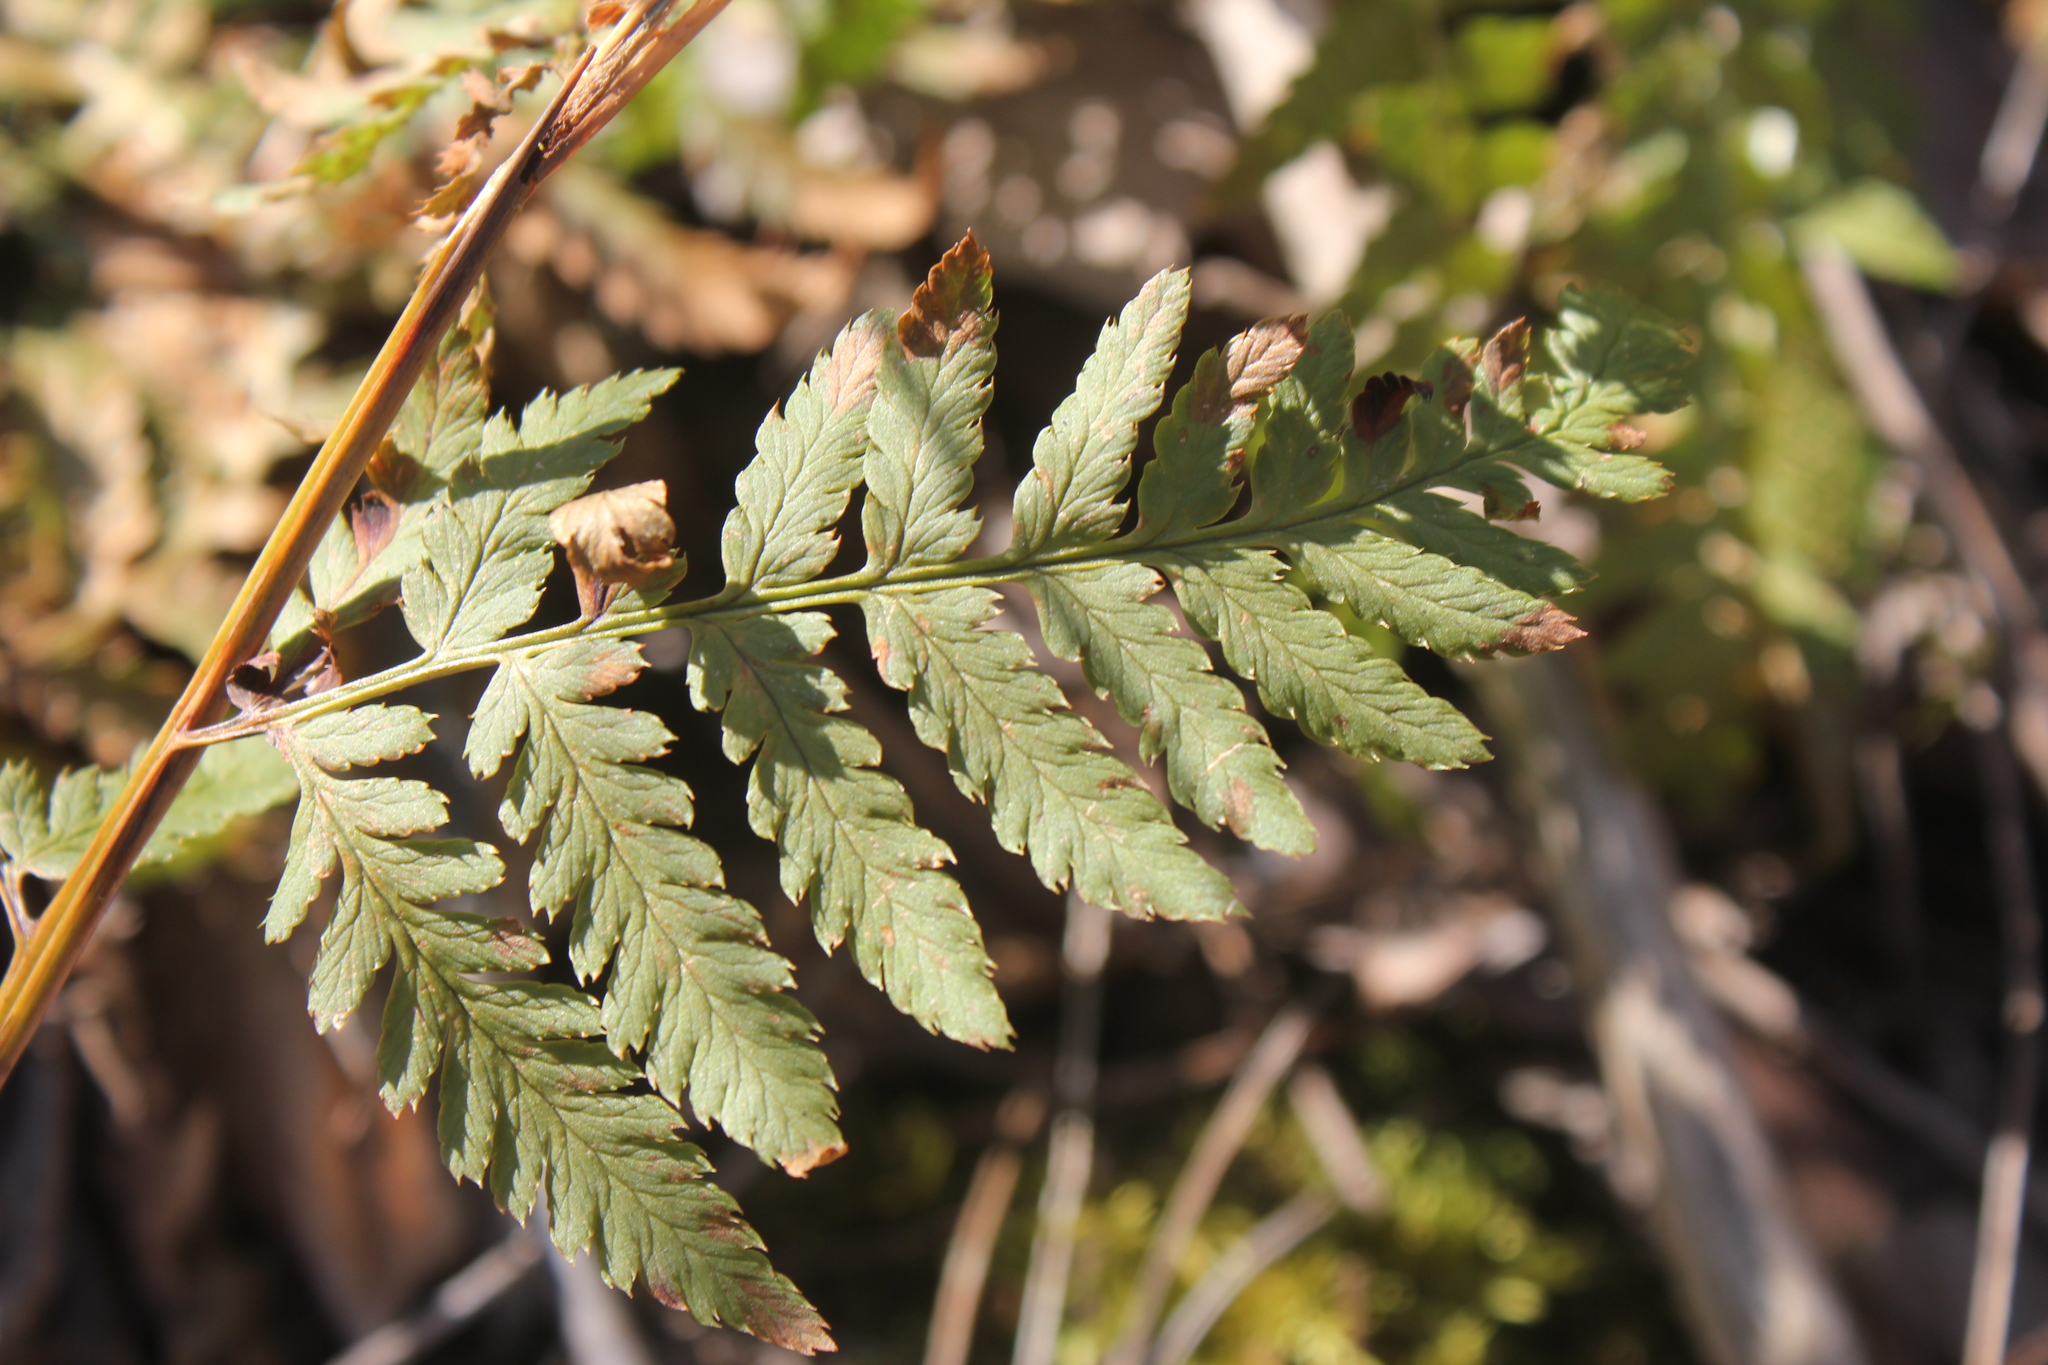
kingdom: Plantae
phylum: Tracheophyta
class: Polypodiopsida
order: Polypodiales
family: Dryopteridaceae
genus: Dryopteris
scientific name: Dryopteris carthusiana
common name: Narrow buckler-fern
